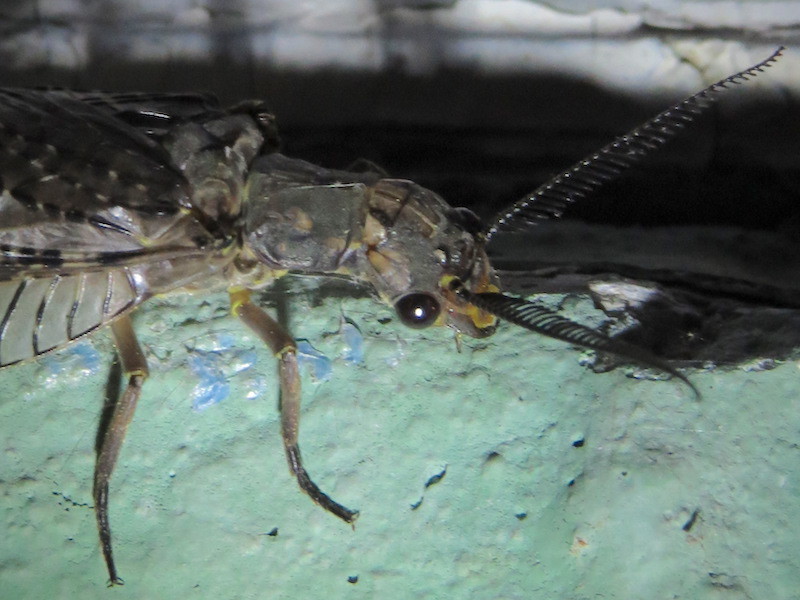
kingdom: Animalia
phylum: Arthropoda
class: Insecta
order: Megaloptera
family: Corydalidae
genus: Chauliodes
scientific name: Chauliodes pectinicornis
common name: Summer fishfly
